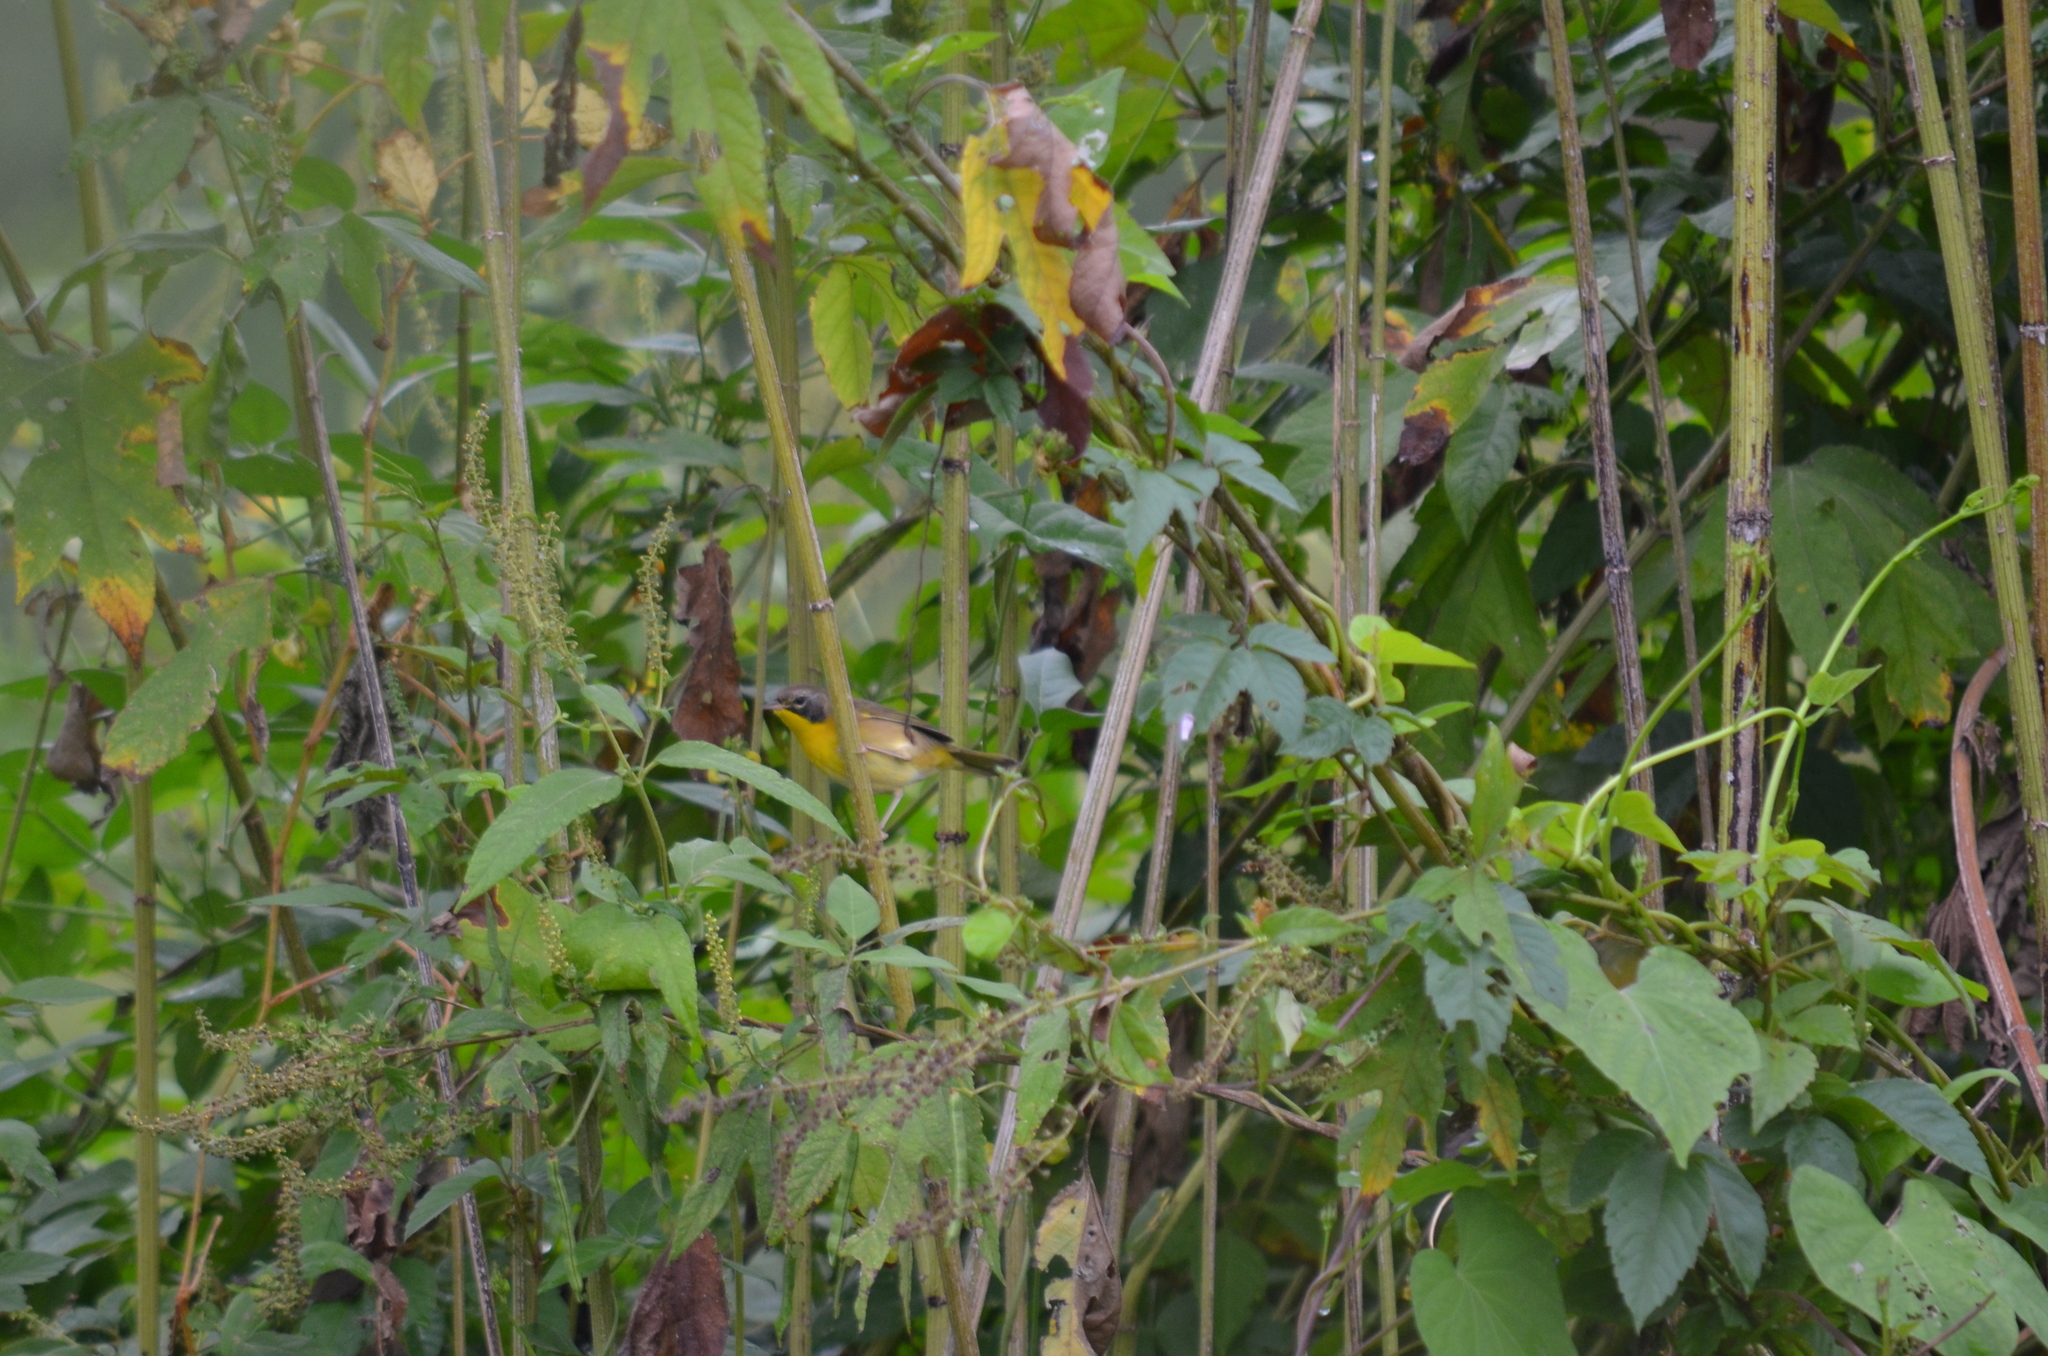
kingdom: Animalia
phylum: Chordata
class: Aves
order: Passeriformes
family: Parulidae
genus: Geothlypis
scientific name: Geothlypis trichas
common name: Common yellowthroat
